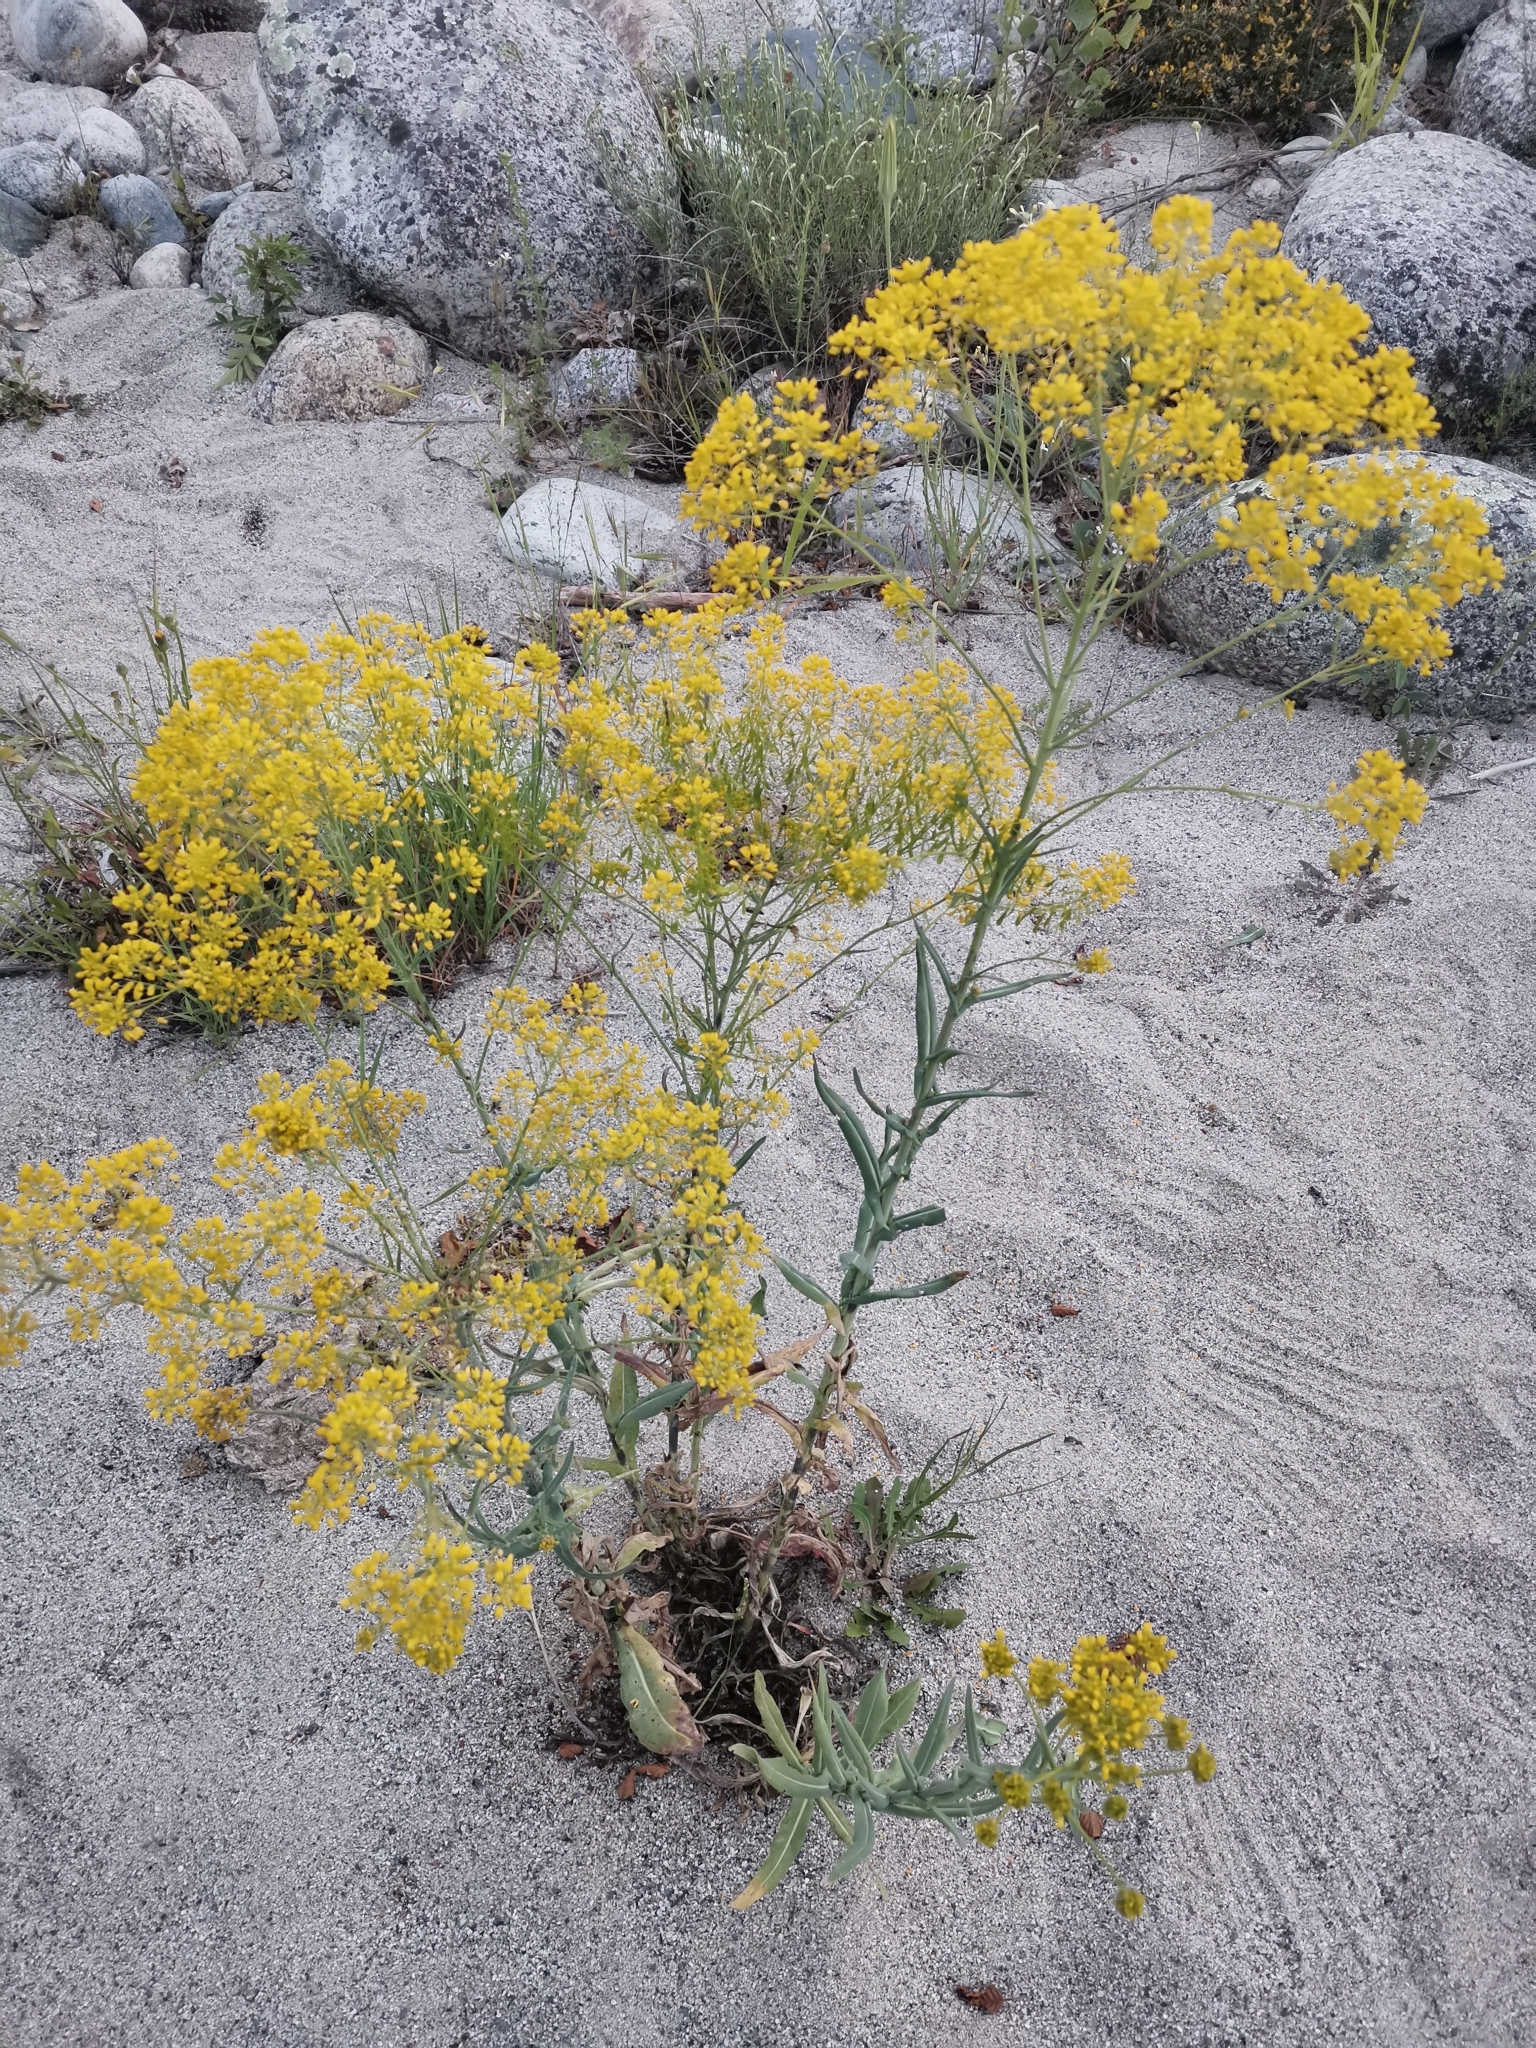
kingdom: Plantae
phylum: Tracheophyta
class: Magnoliopsida
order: Brassicales
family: Brassicaceae
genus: Isatis
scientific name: Isatis tinctoria
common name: Woad
